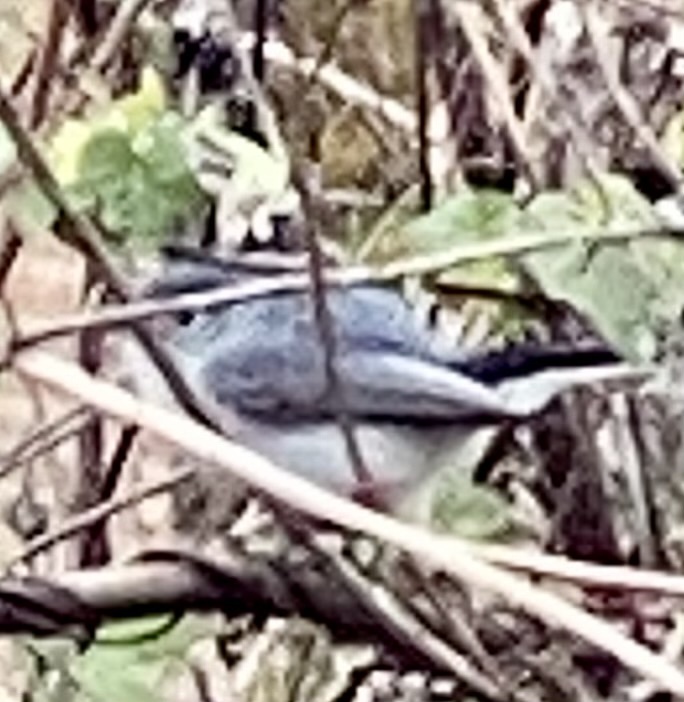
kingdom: Animalia
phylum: Chordata
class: Aves
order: Passeriformes
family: Polioptilidae
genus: Polioptila
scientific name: Polioptila caerulea
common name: Blue-gray gnatcatcher
